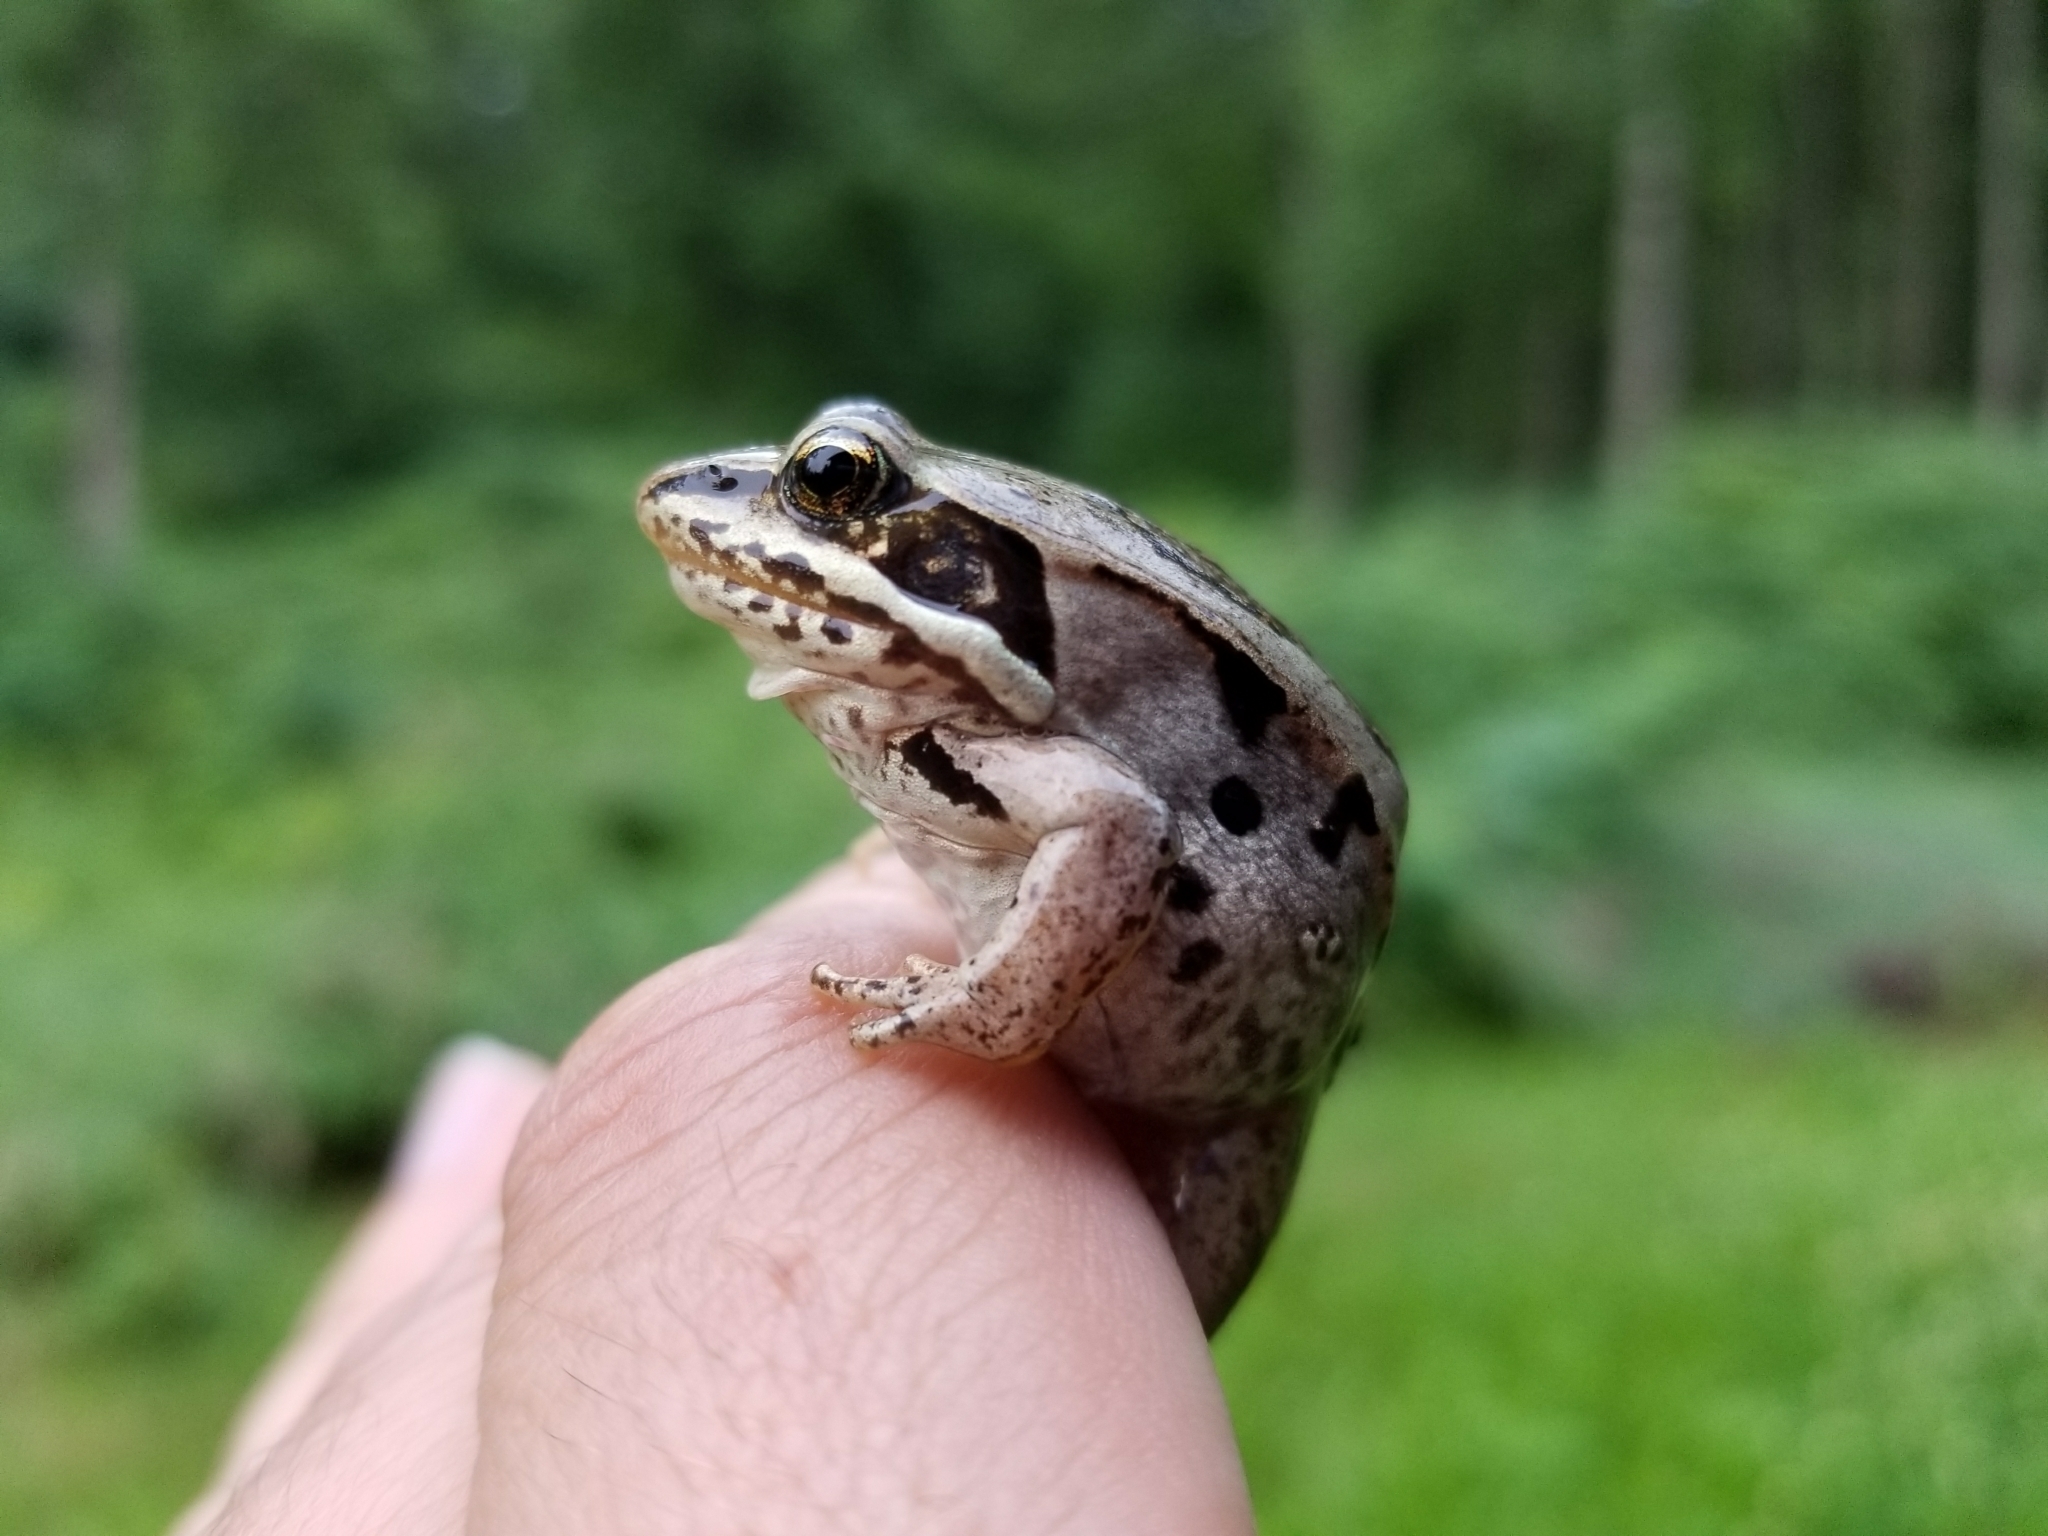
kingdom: Animalia
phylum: Chordata
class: Amphibia
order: Anura
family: Ranidae
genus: Lithobates
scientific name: Lithobates sylvaticus
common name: Wood frog
